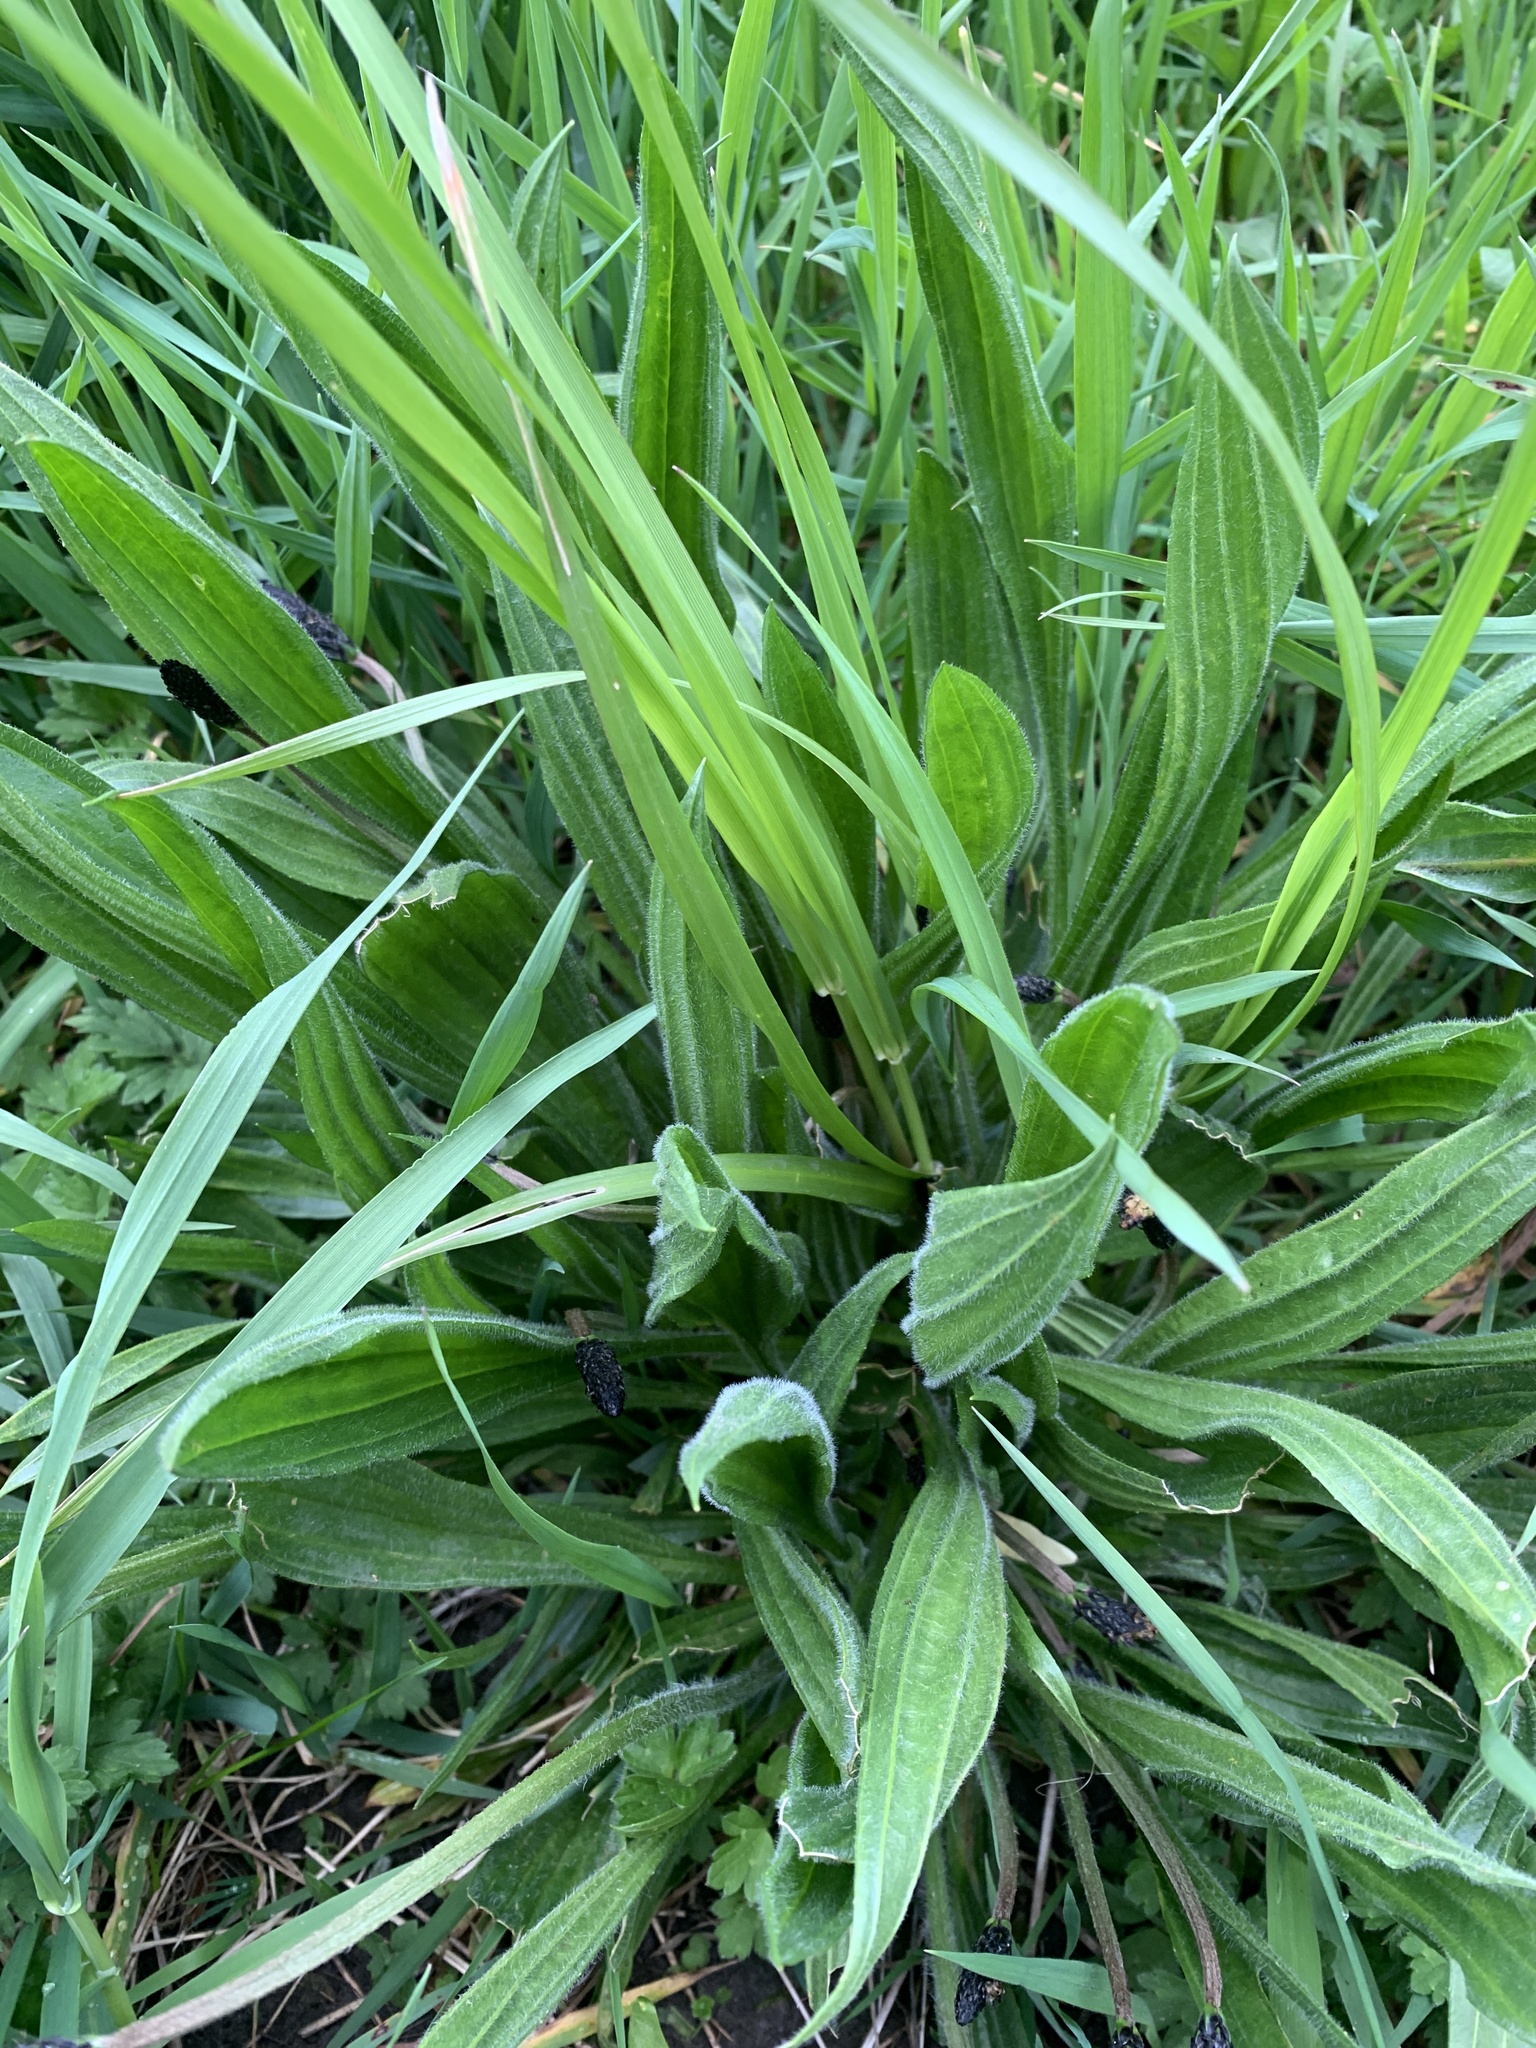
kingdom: Plantae
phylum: Tracheophyta
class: Magnoliopsida
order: Lamiales
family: Plantaginaceae
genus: Plantago
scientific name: Plantago lanceolata
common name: Ribwort plantain
